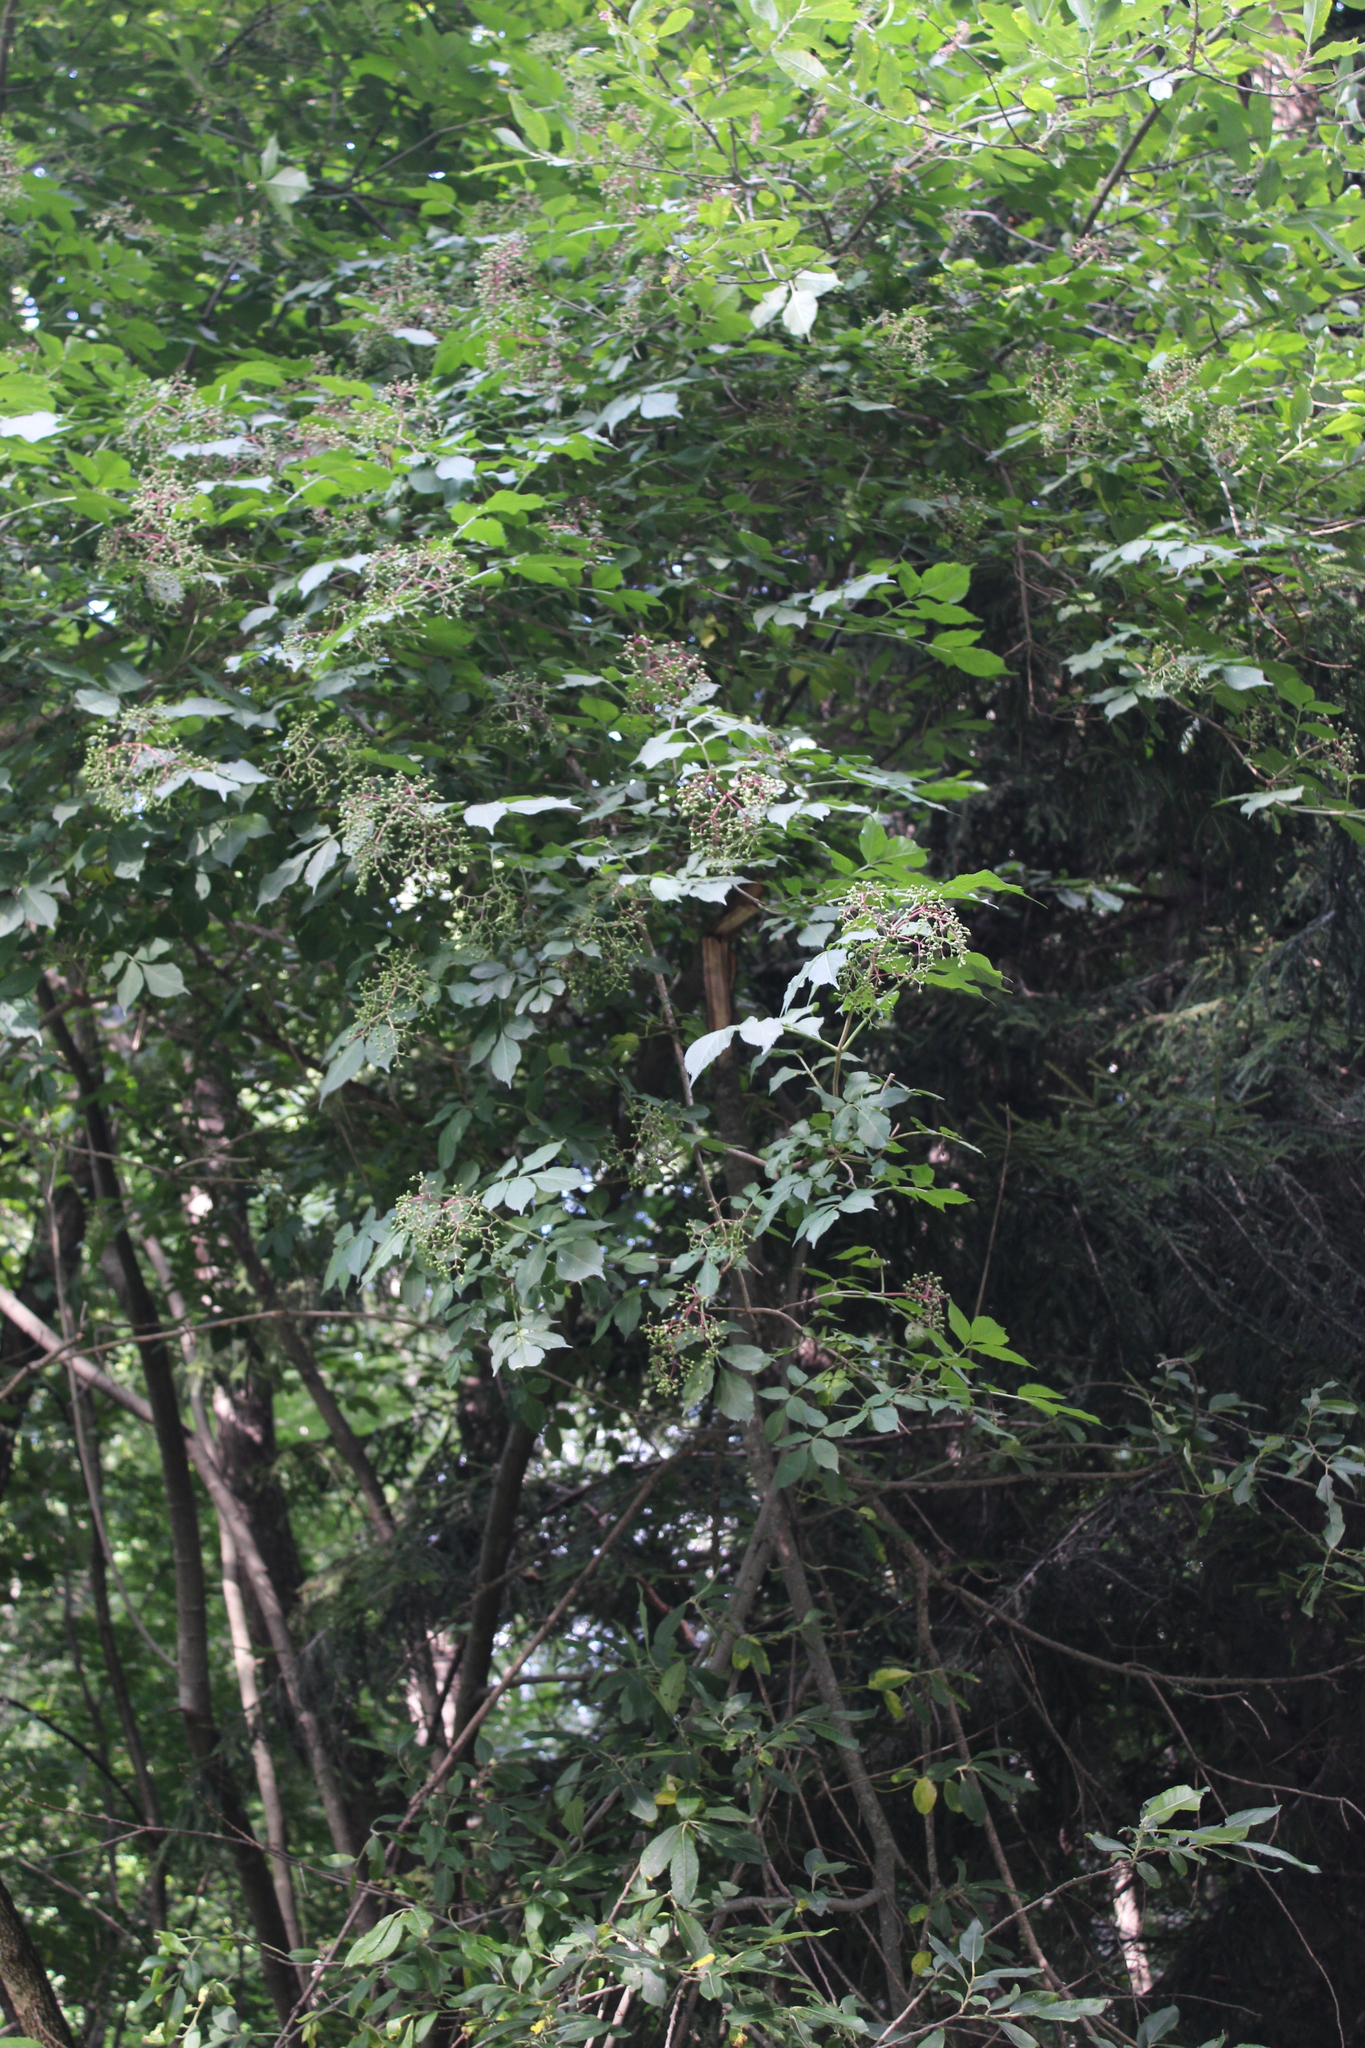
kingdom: Plantae
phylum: Tracheophyta
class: Magnoliopsida
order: Dipsacales
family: Viburnaceae
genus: Sambucus
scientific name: Sambucus nigra
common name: Elder
